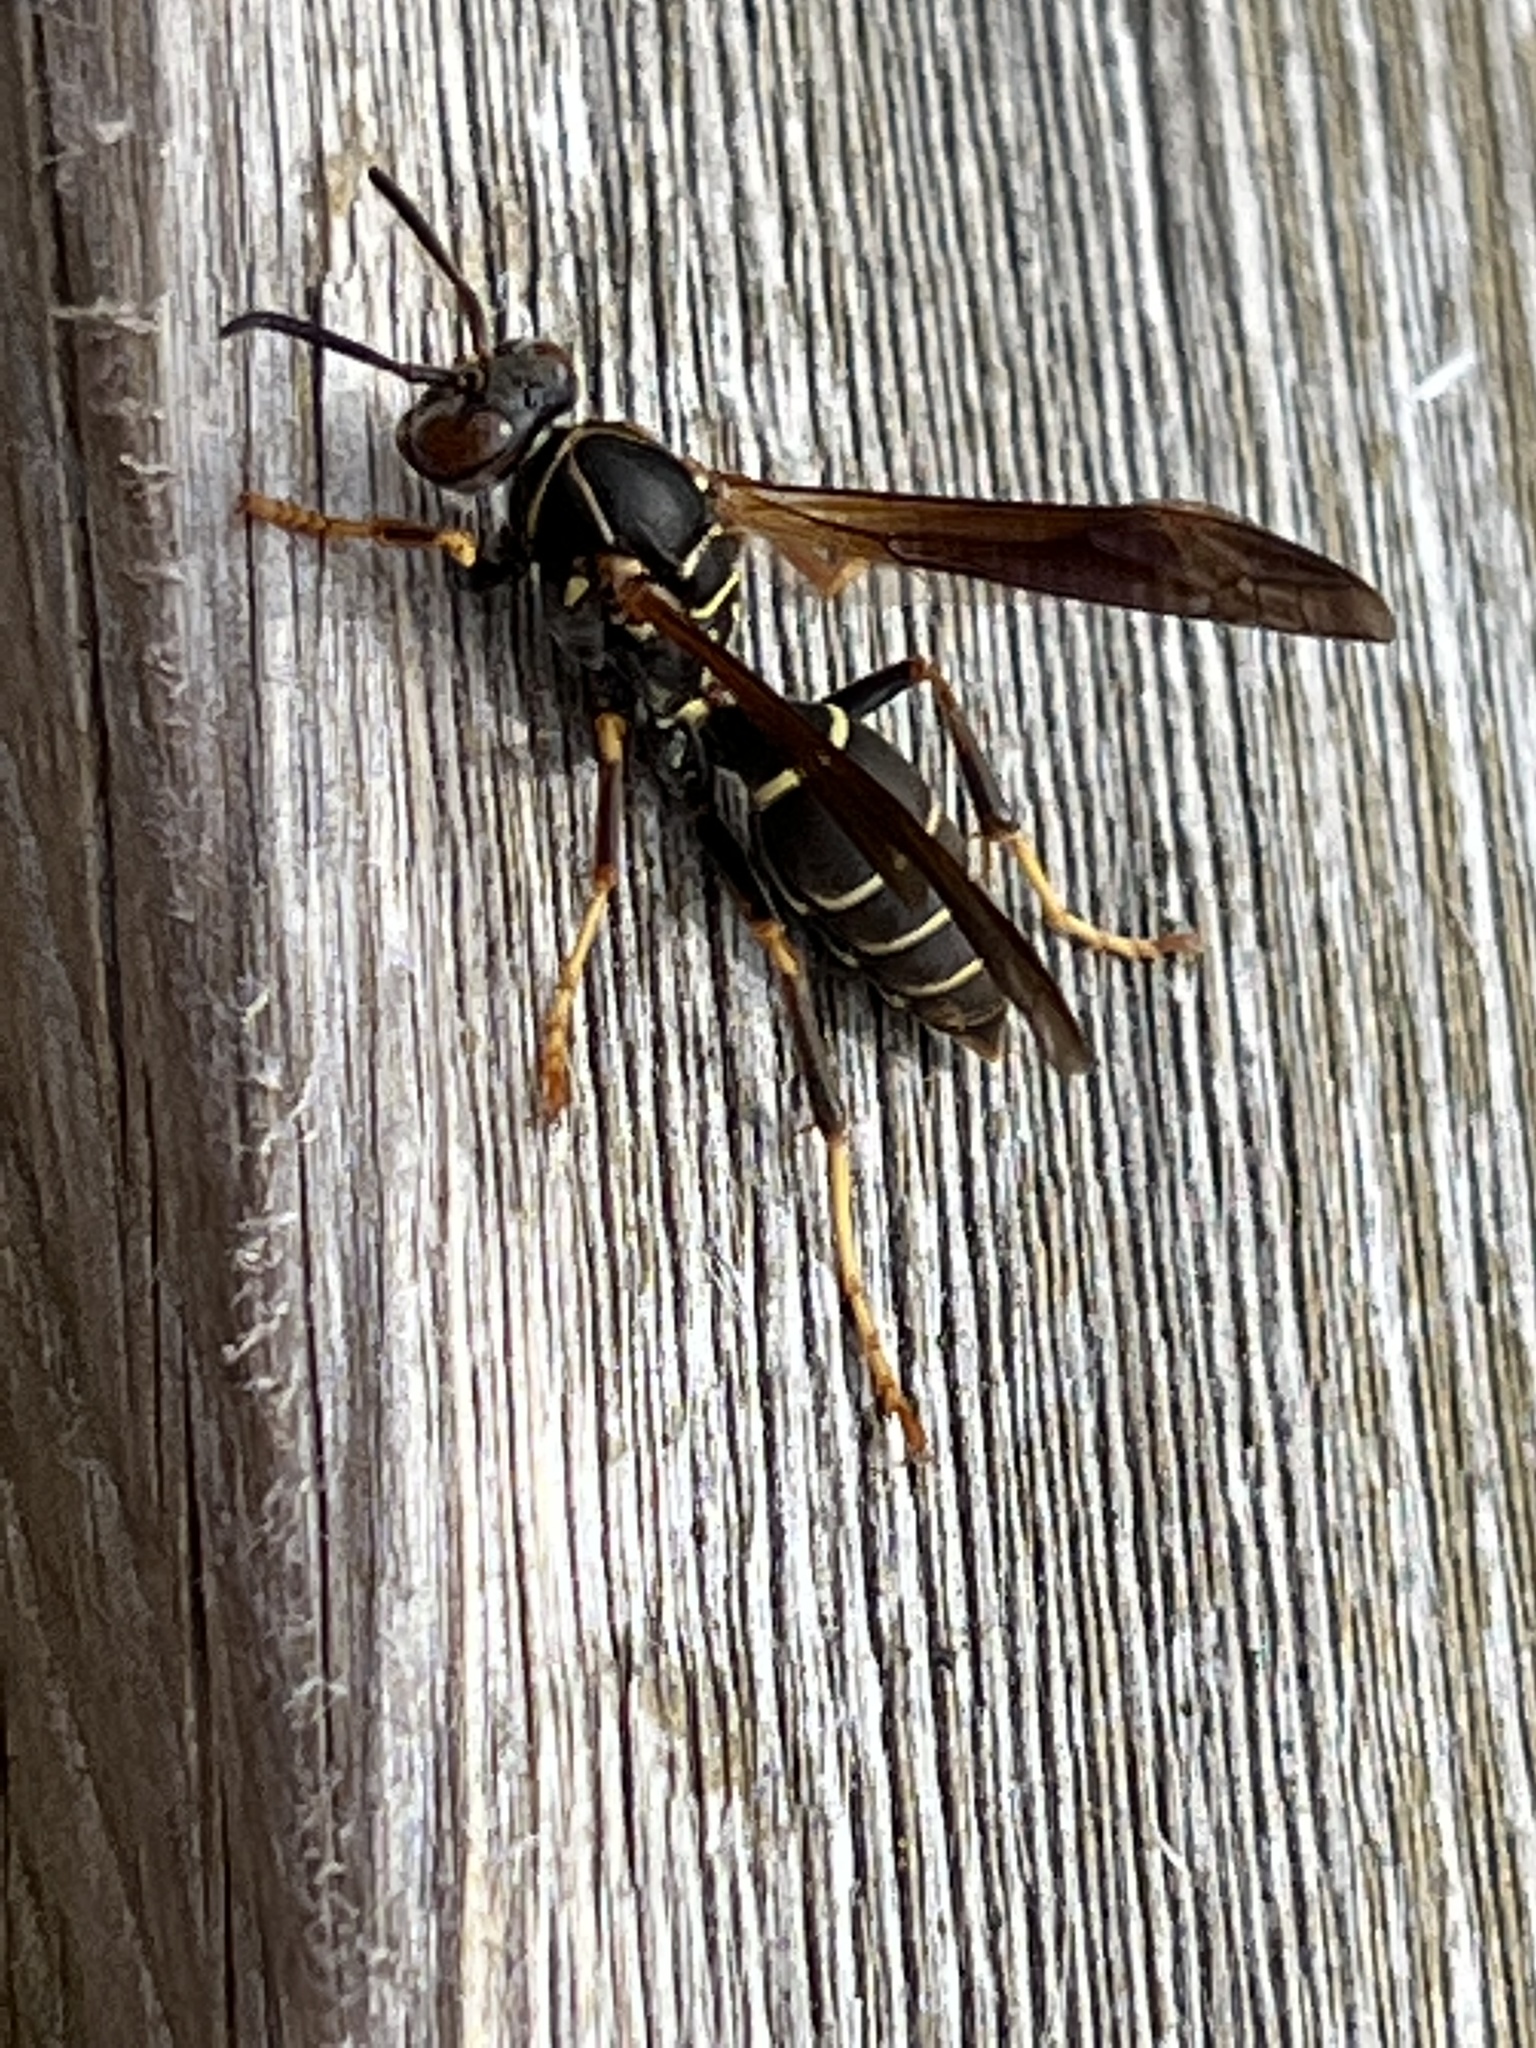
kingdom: Animalia
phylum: Arthropoda
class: Insecta
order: Hymenoptera
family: Eumenidae
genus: Polistes
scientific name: Polistes fuscatus
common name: Dark paper wasp
